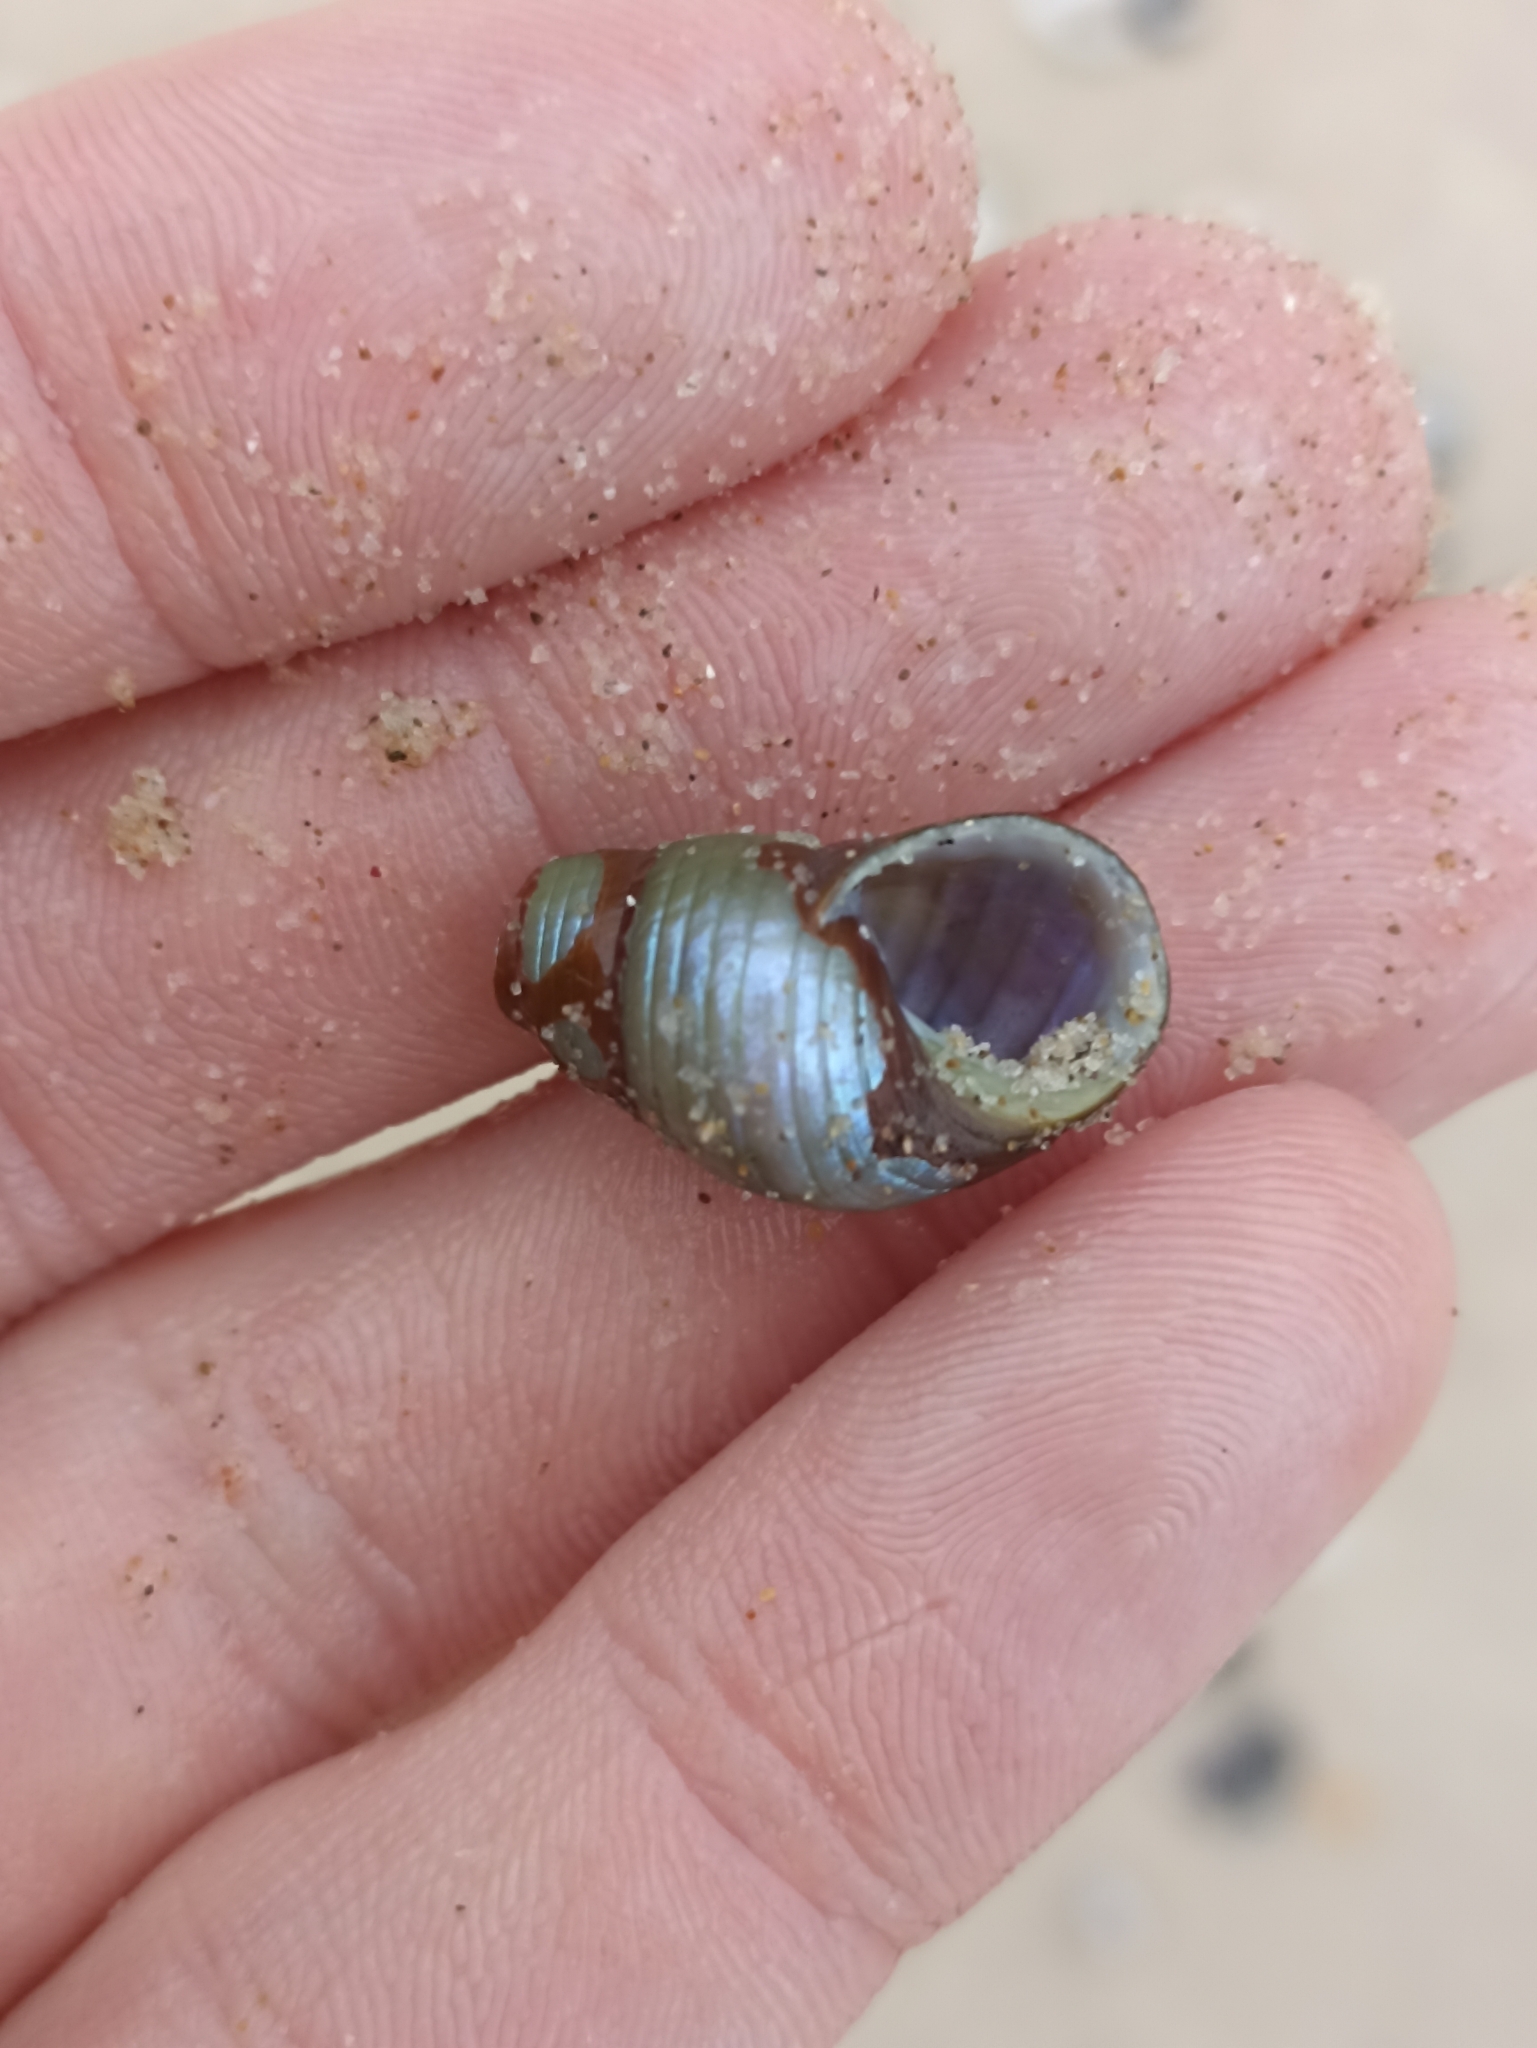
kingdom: Animalia
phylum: Mollusca
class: Gastropoda
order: Trochida
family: Trochidae
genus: Phasianotrochus
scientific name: Phasianotrochus eximius
